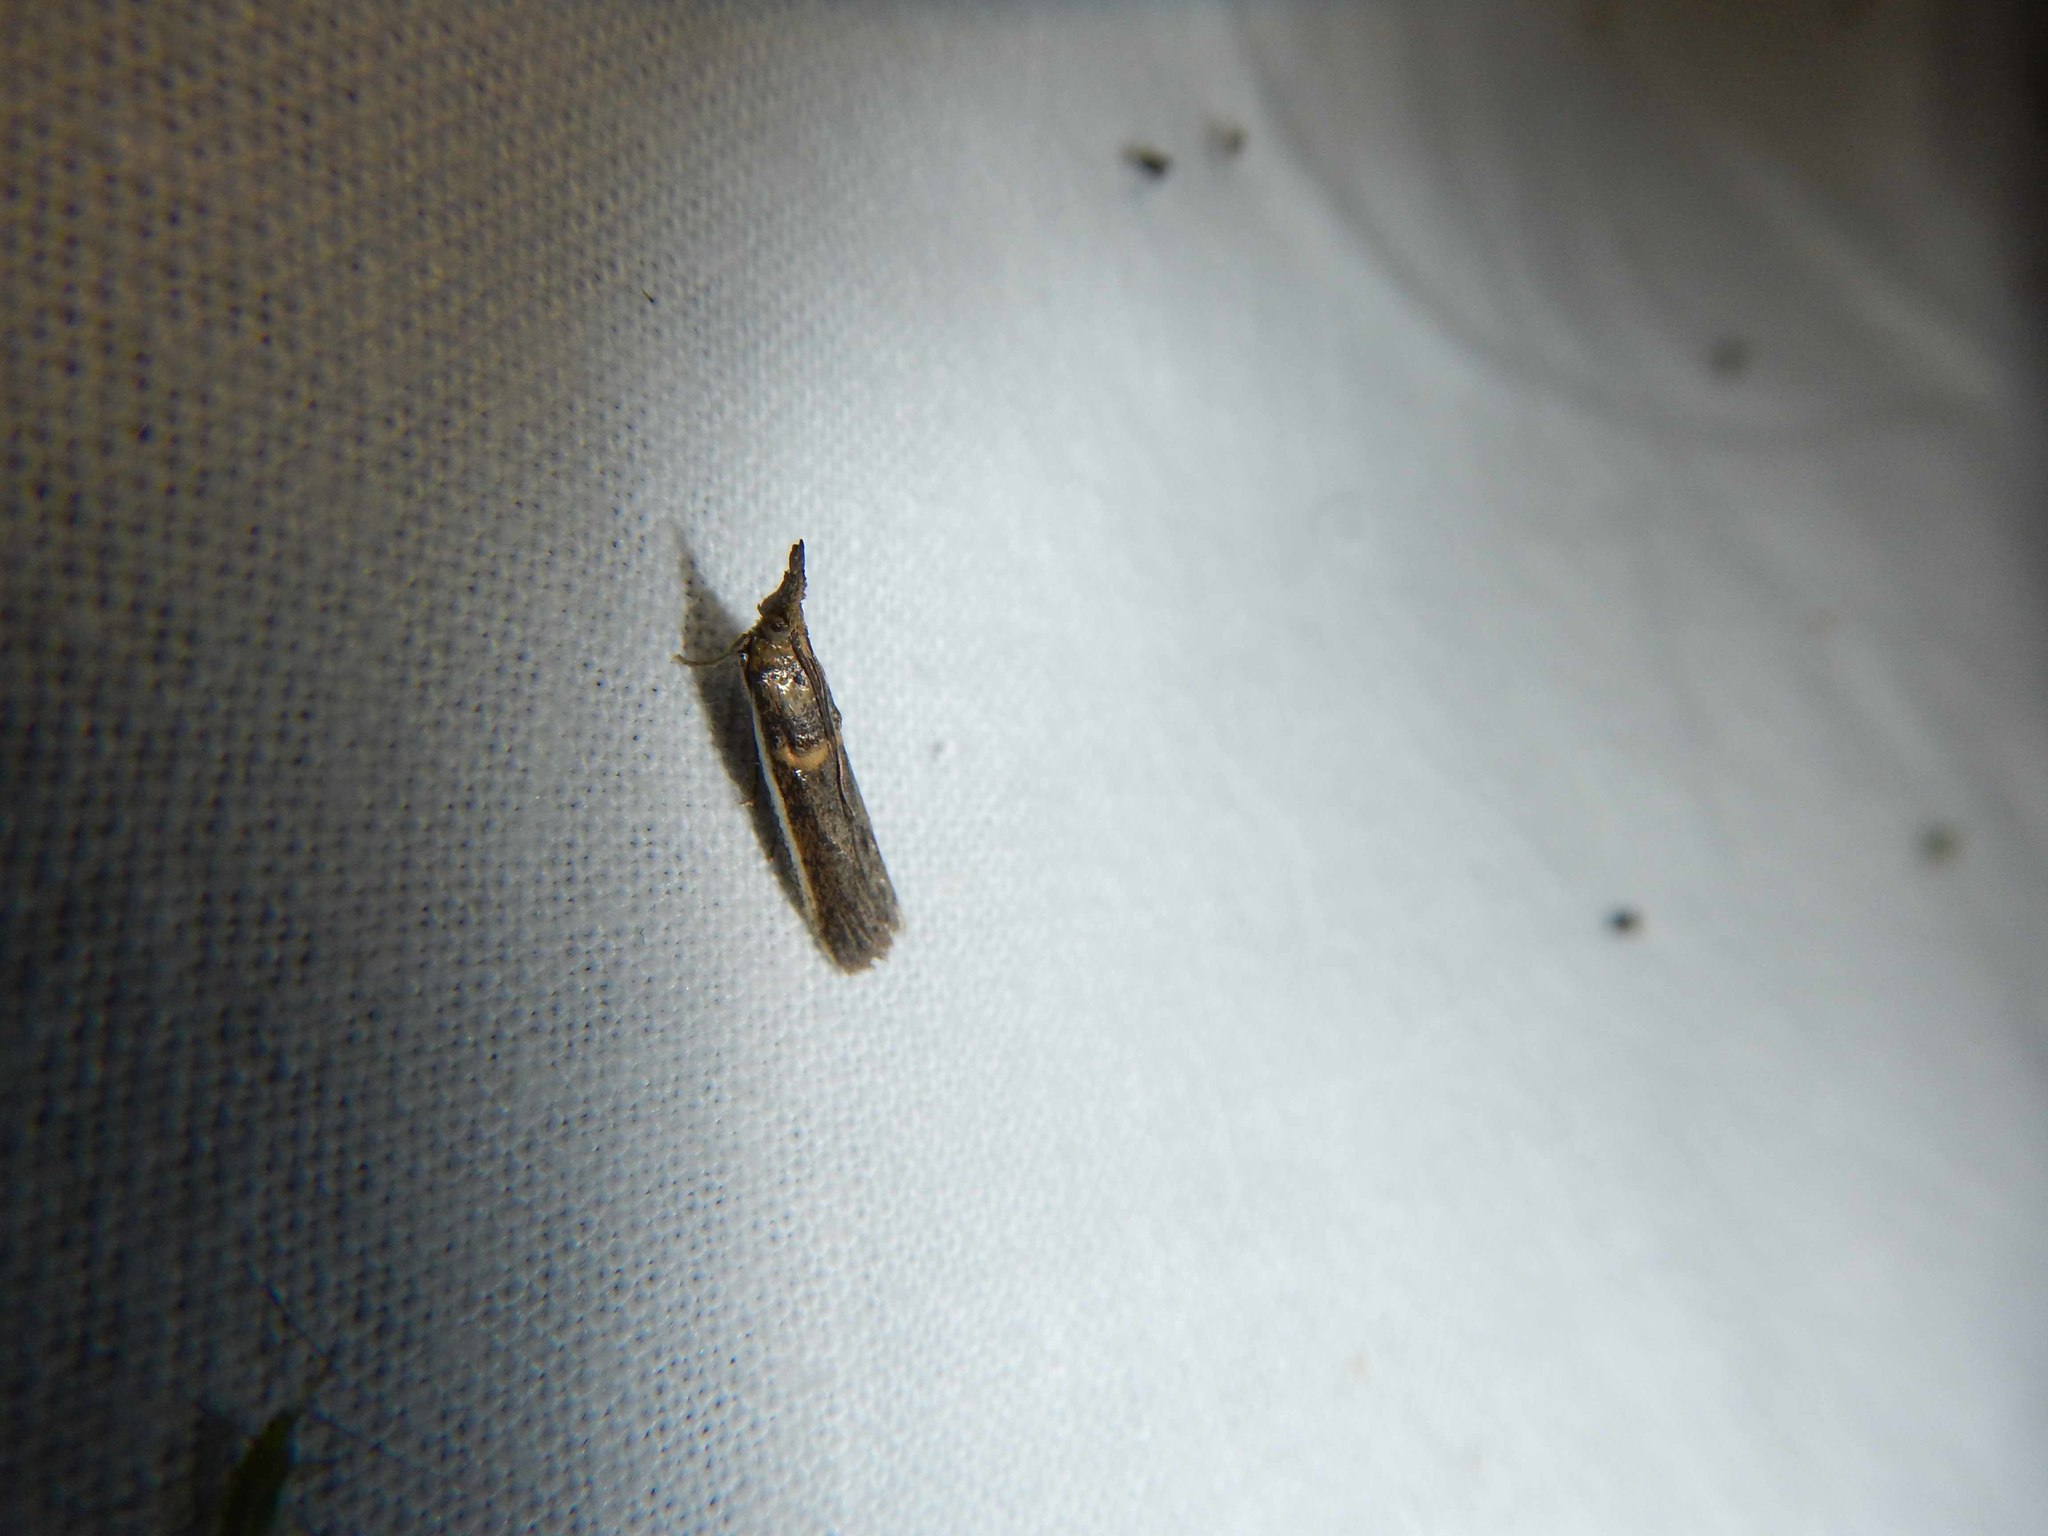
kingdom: Animalia
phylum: Arthropoda
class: Insecta
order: Lepidoptera
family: Pyralidae
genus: Etiella
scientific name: Etiella zinckenella
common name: Gold-banded etiella moth
